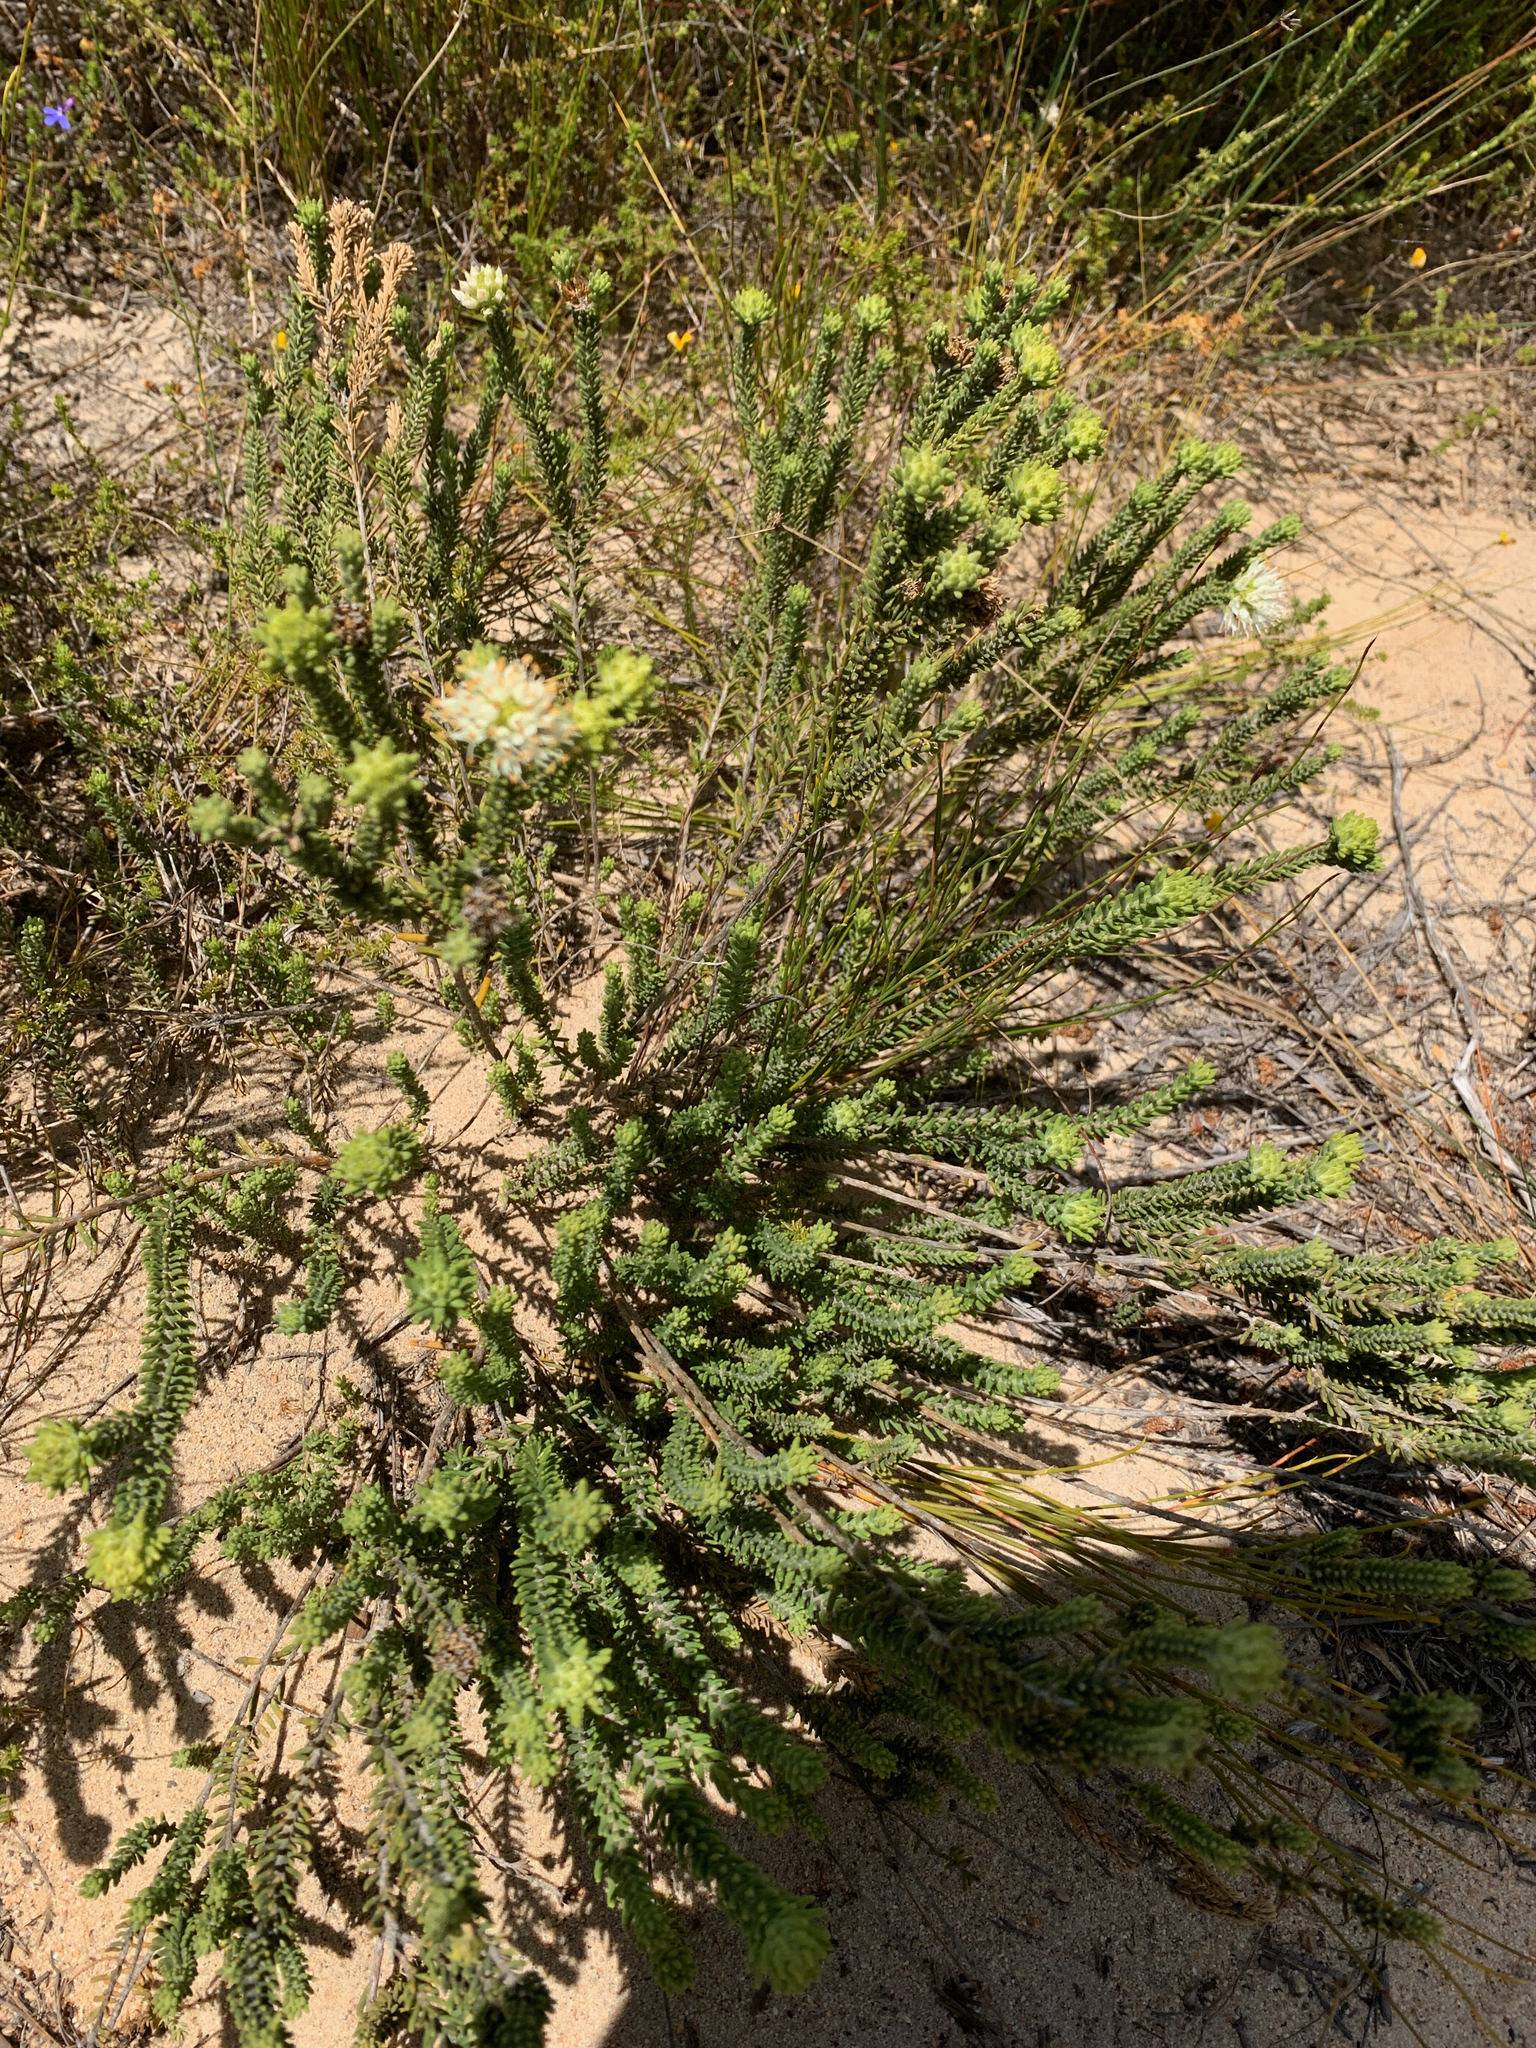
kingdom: Plantae
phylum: Tracheophyta
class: Magnoliopsida
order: Lamiales
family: Stilbaceae
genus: Campylostachys
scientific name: Campylostachys cernua
